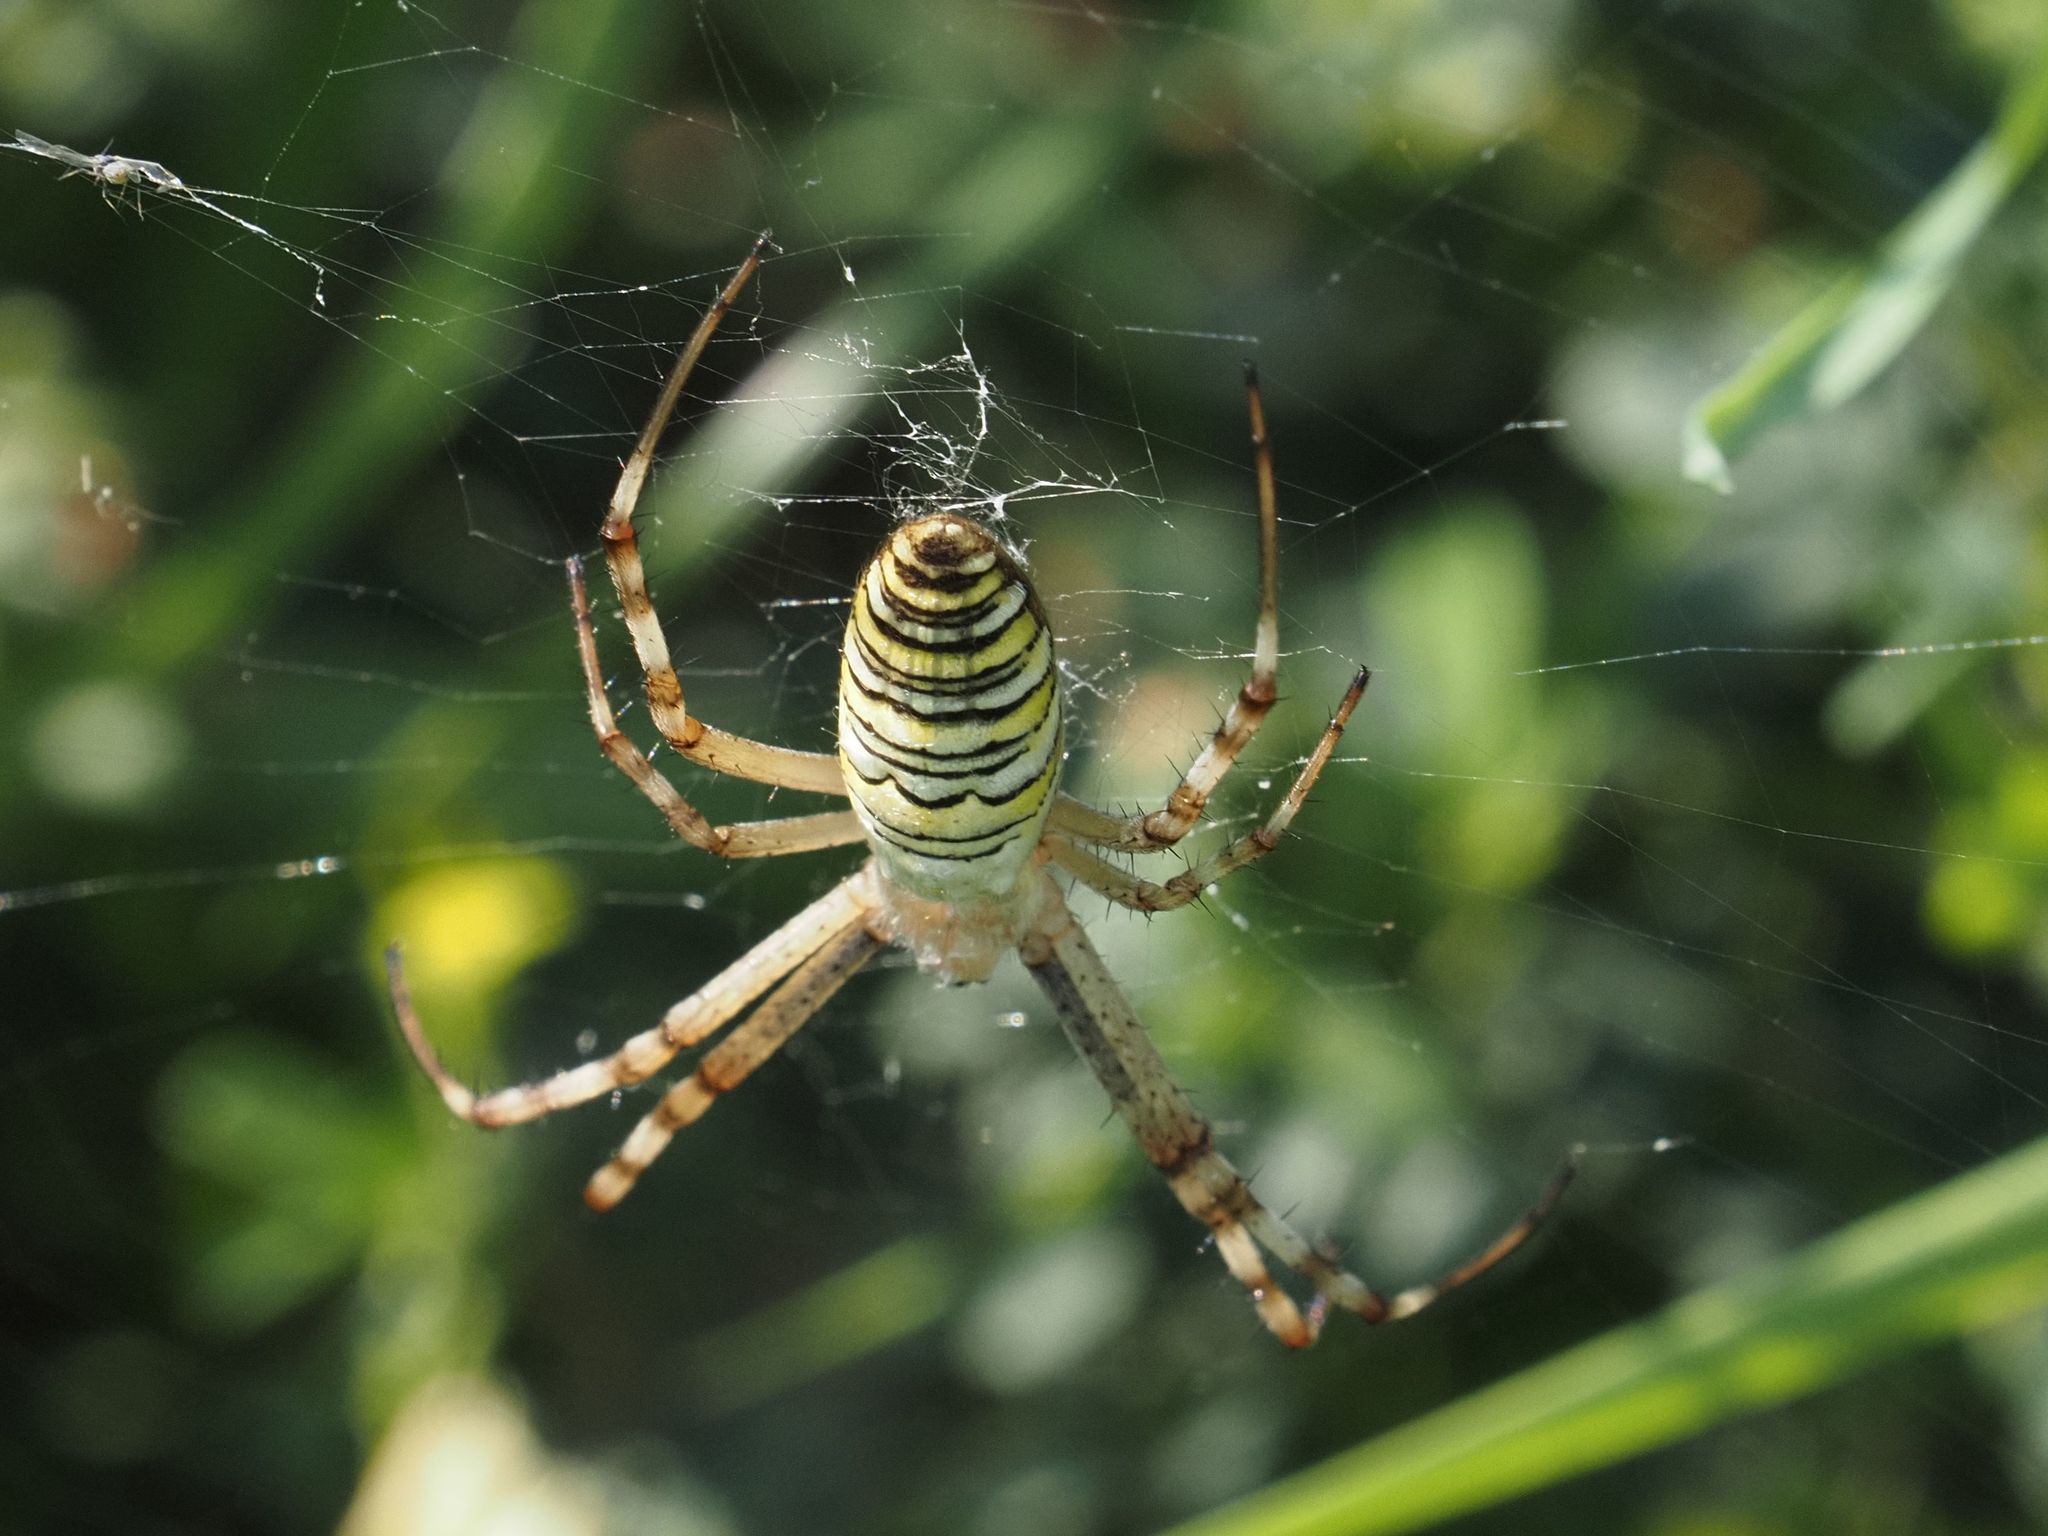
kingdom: Animalia
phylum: Arthropoda
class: Arachnida
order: Araneae
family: Araneidae
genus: Argiope
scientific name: Argiope bruennichi
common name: Wasp spider
